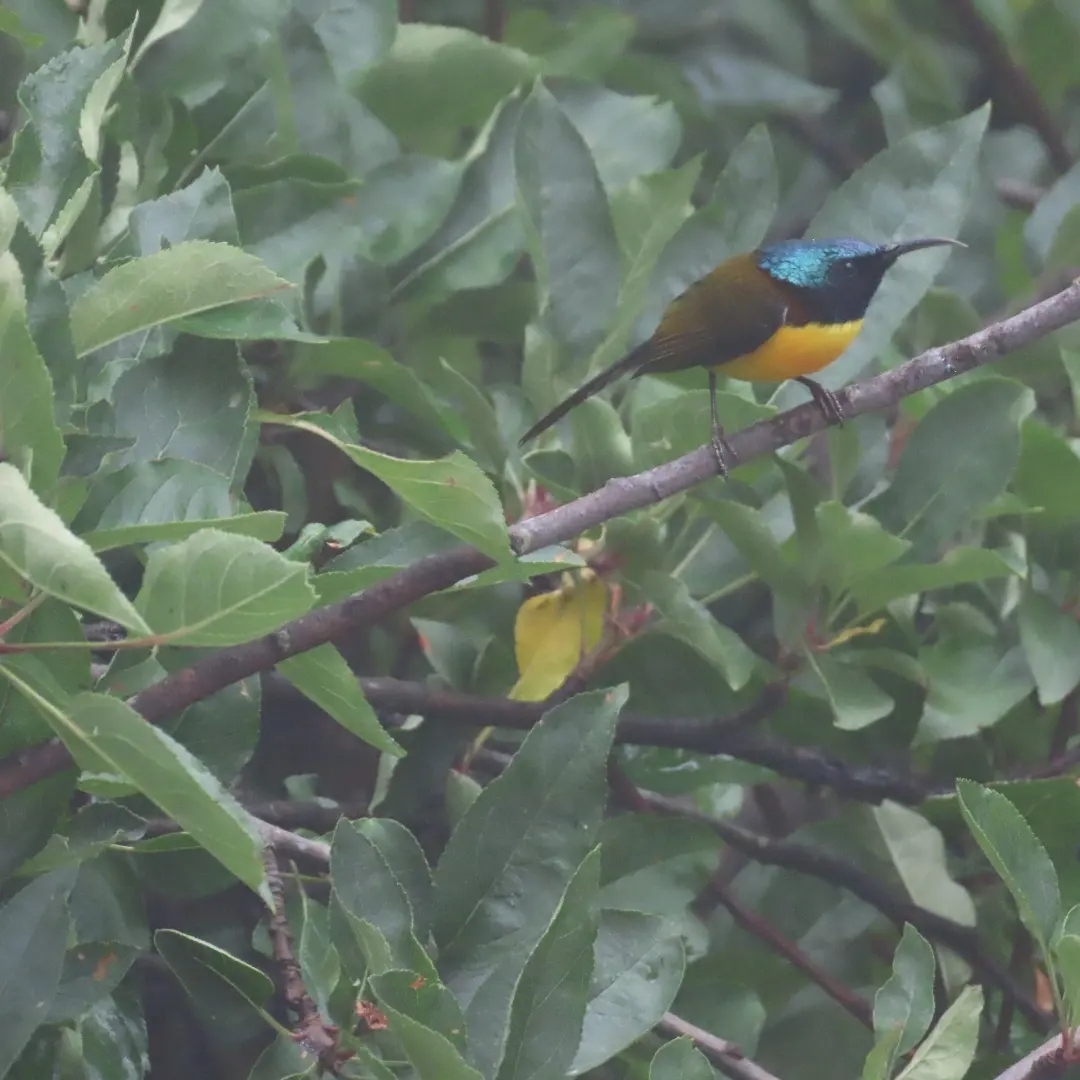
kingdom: Animalia
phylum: Chordata
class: Aves
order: Passeriformes
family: Nectariniidae
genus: Aethopyga
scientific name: Aethopyga nipalensis
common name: Green-tailed sunbird
